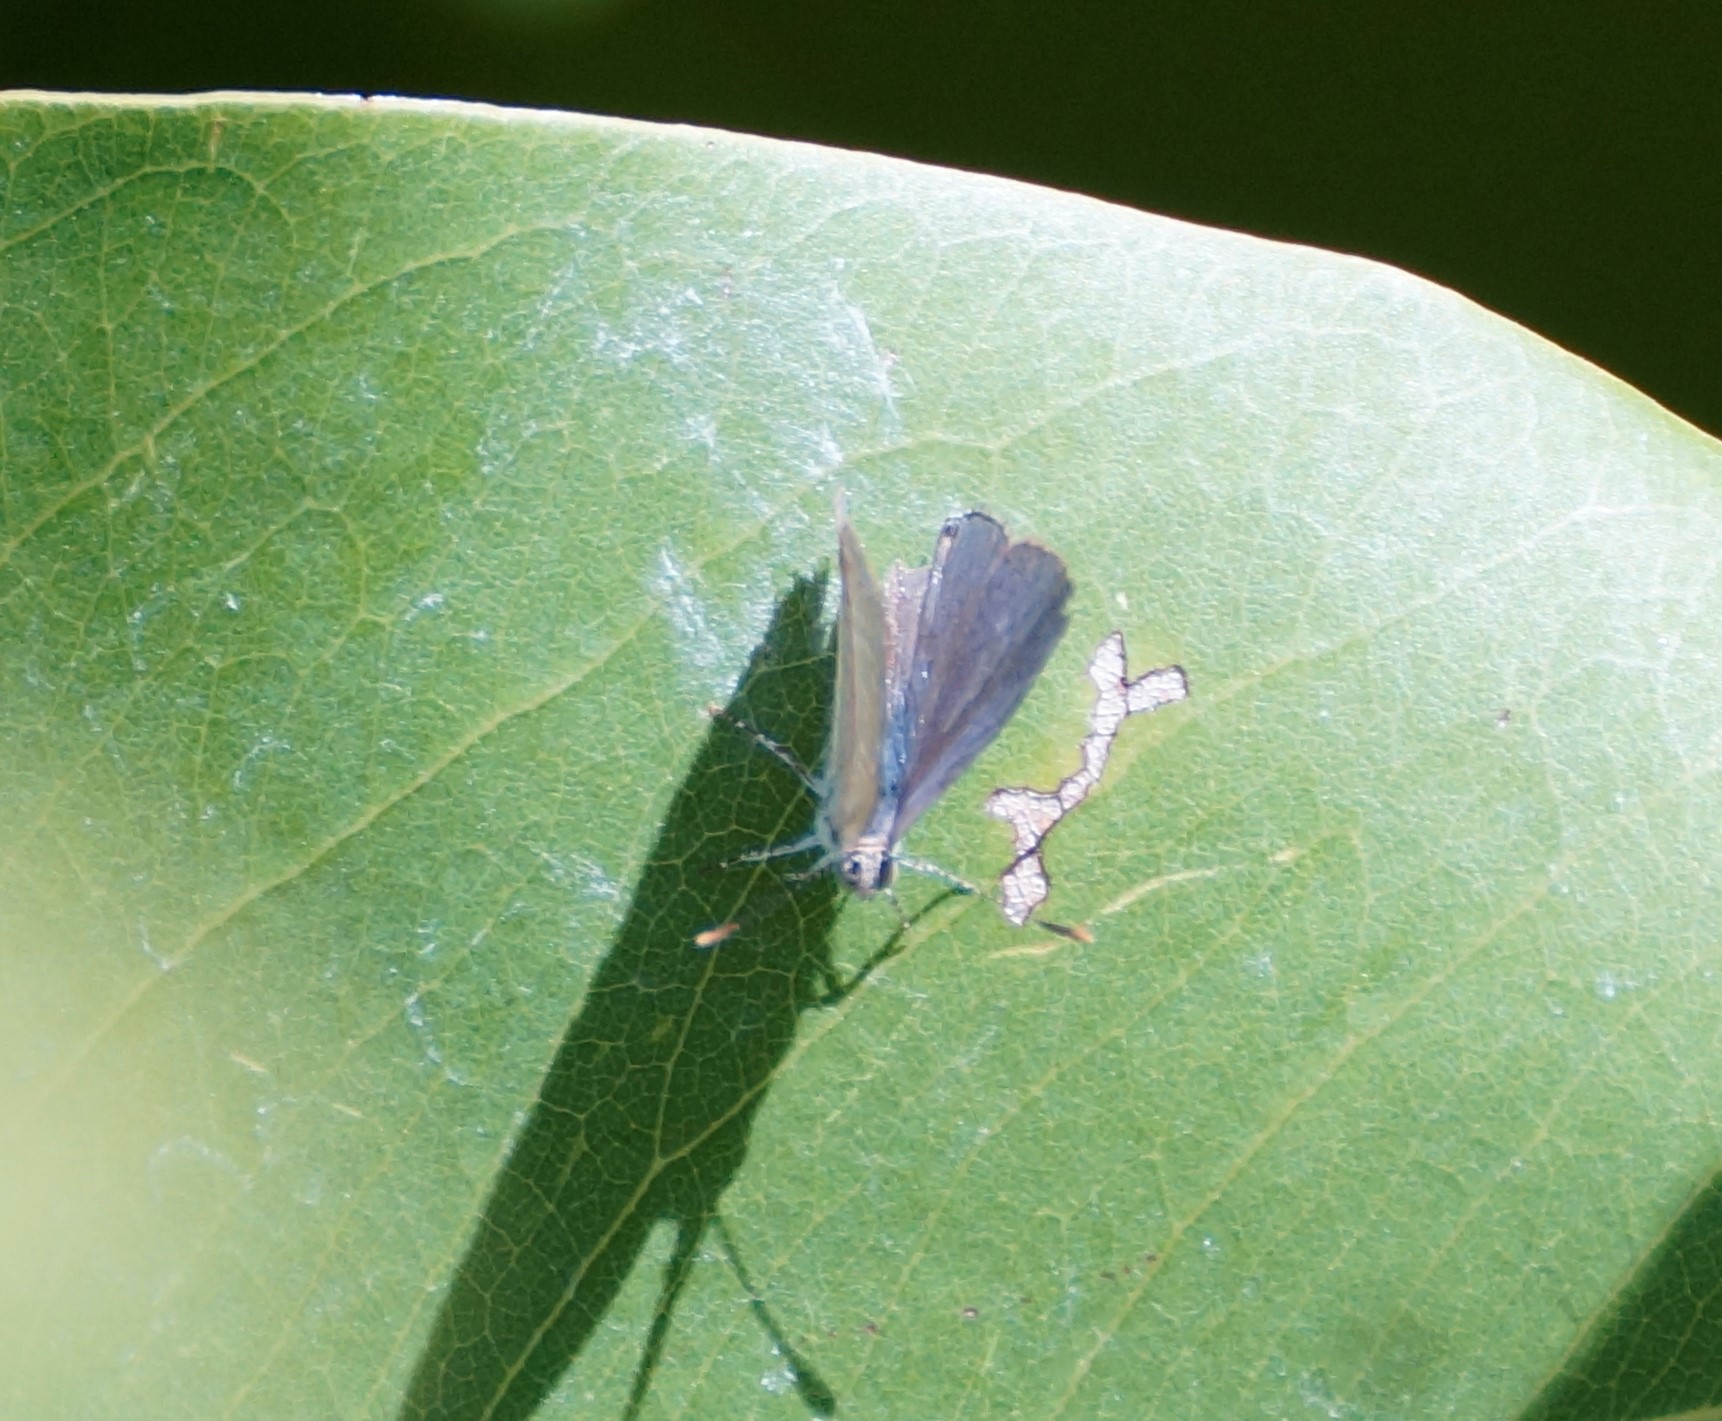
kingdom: Animalia
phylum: Arthropoda
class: Insecta
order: Lepidoptera
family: Lycaenidae
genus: Catopyrops
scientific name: Catopyrops florinda
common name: Speckled line-blue
